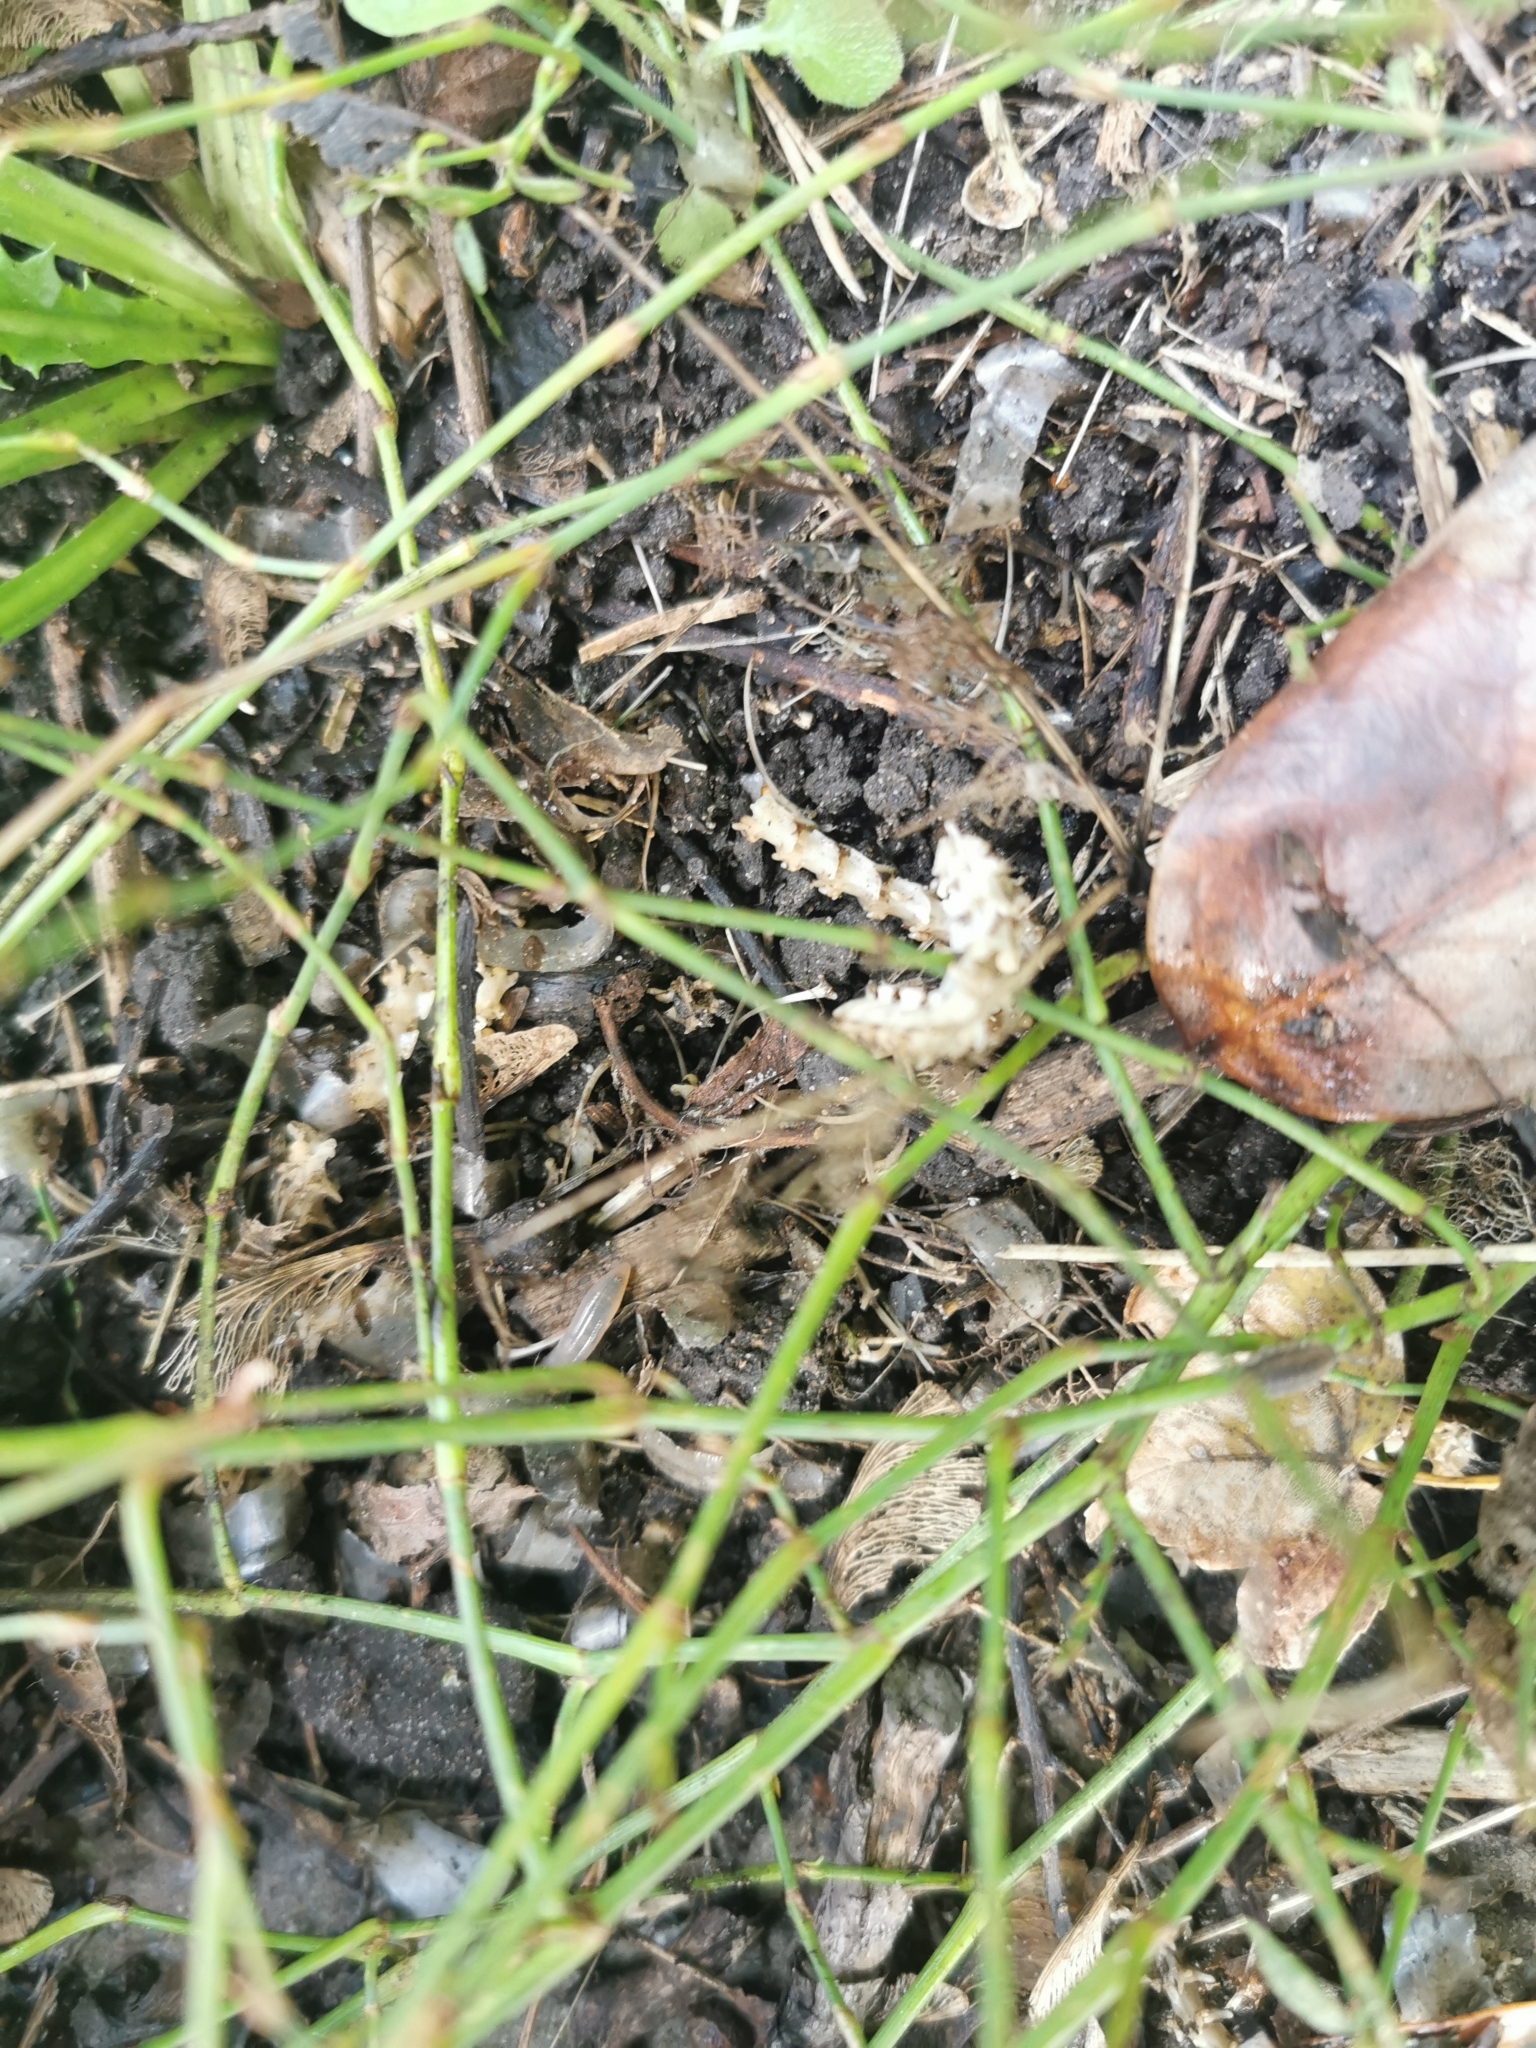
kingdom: Animalia
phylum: Chordata
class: Squamata
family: Colubridae
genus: Natrix
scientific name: Natrix helvetica
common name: Banded grass snake
